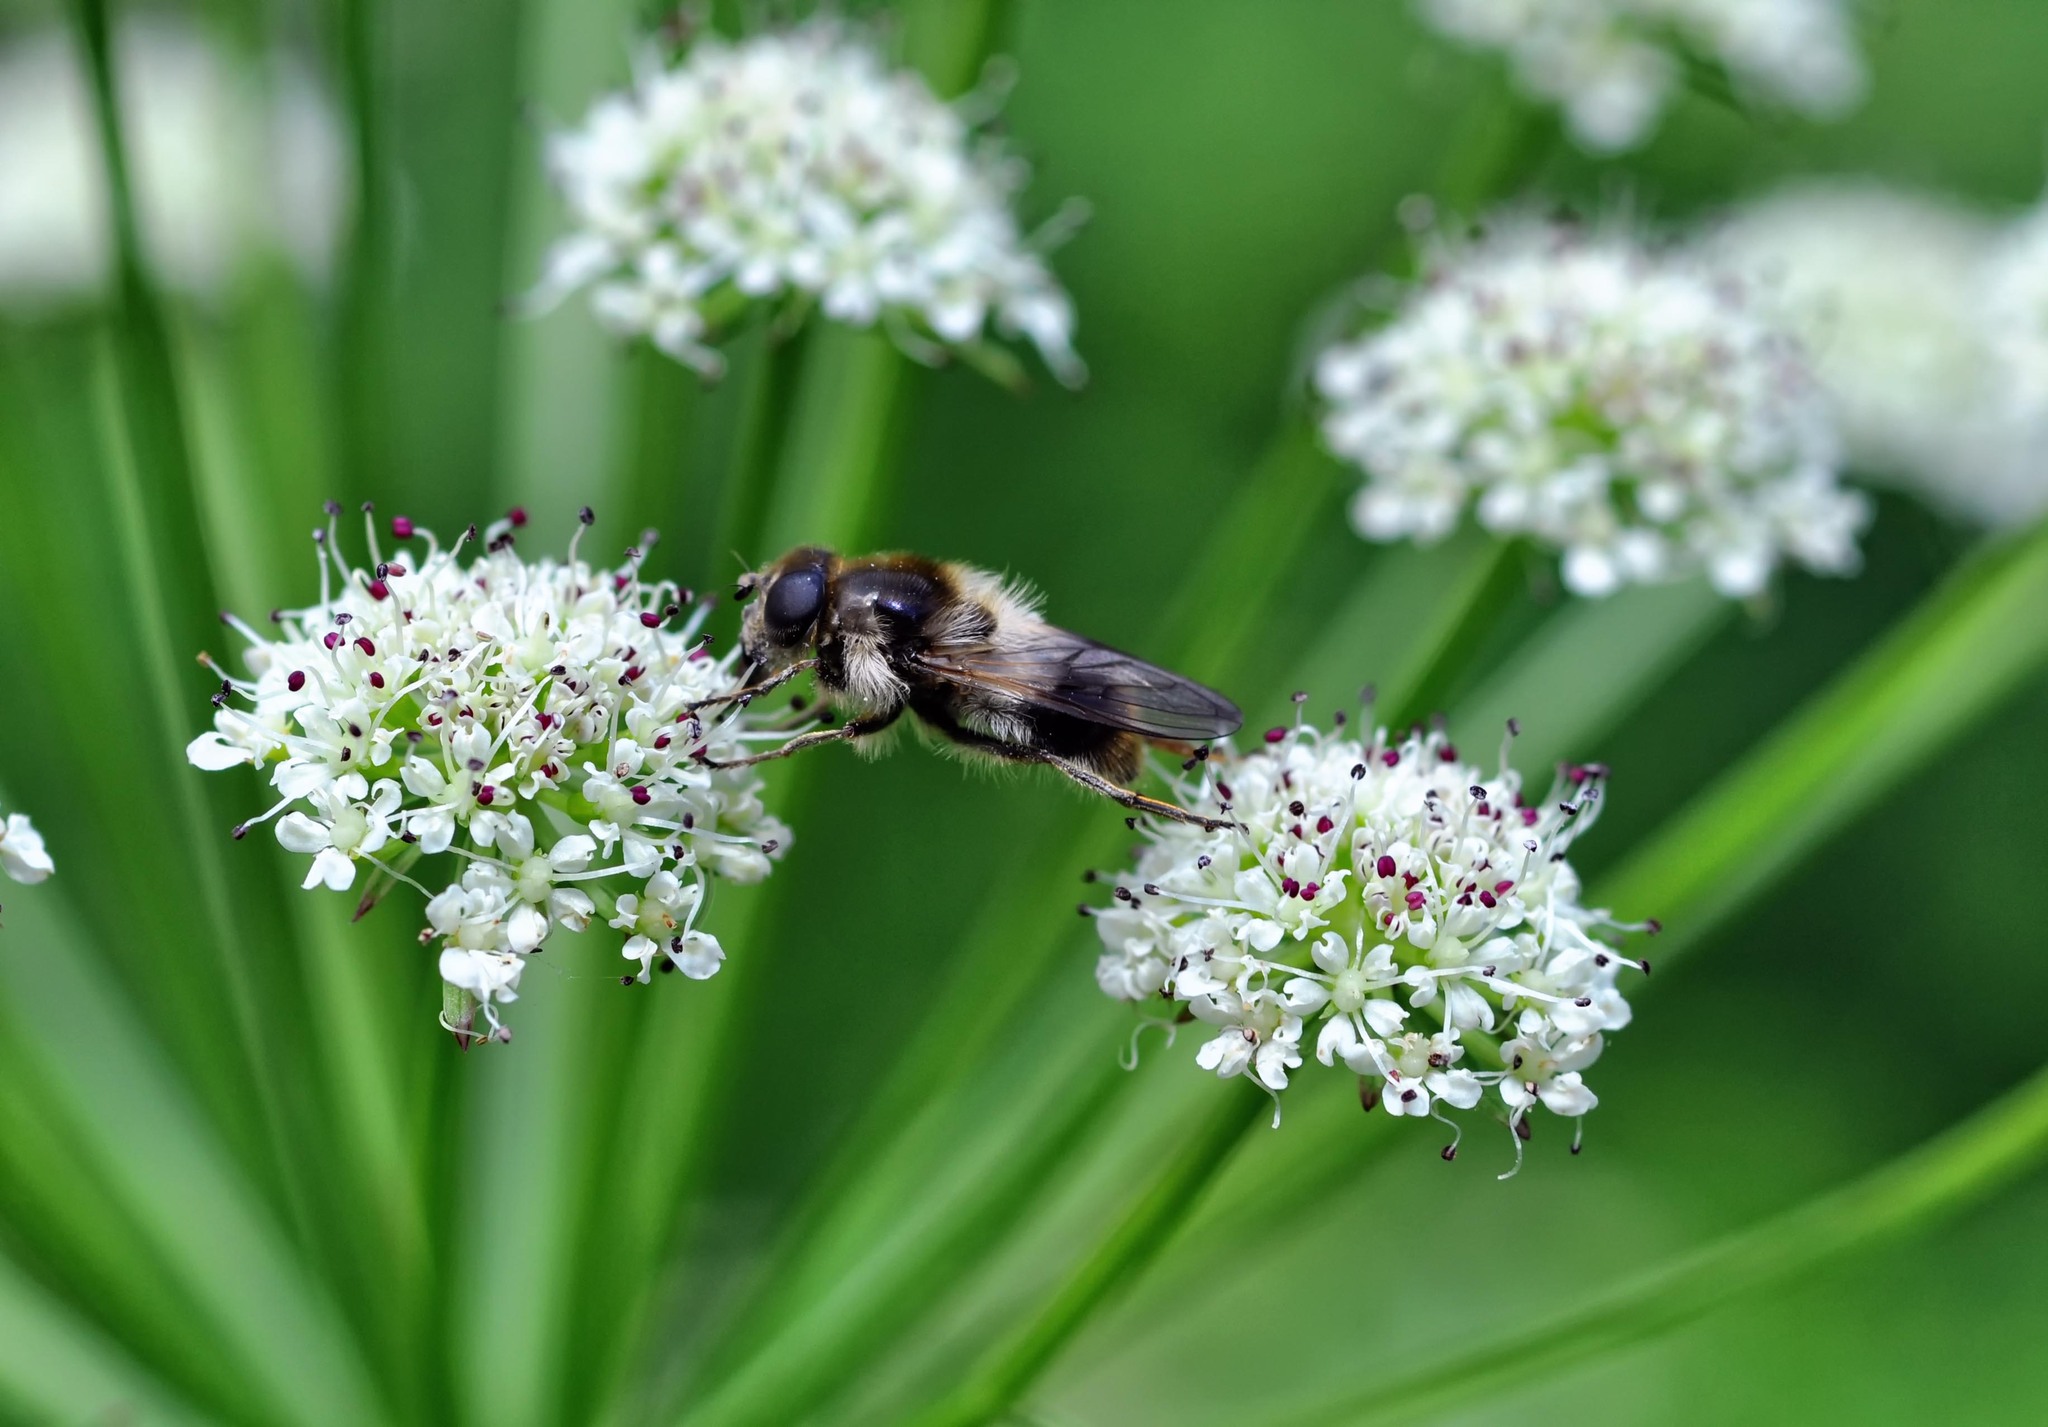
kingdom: Animalia
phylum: Arthropoda
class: Insecta
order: Diptera
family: Syrphidae
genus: Cheilosia
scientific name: Cheilosia illustrata
